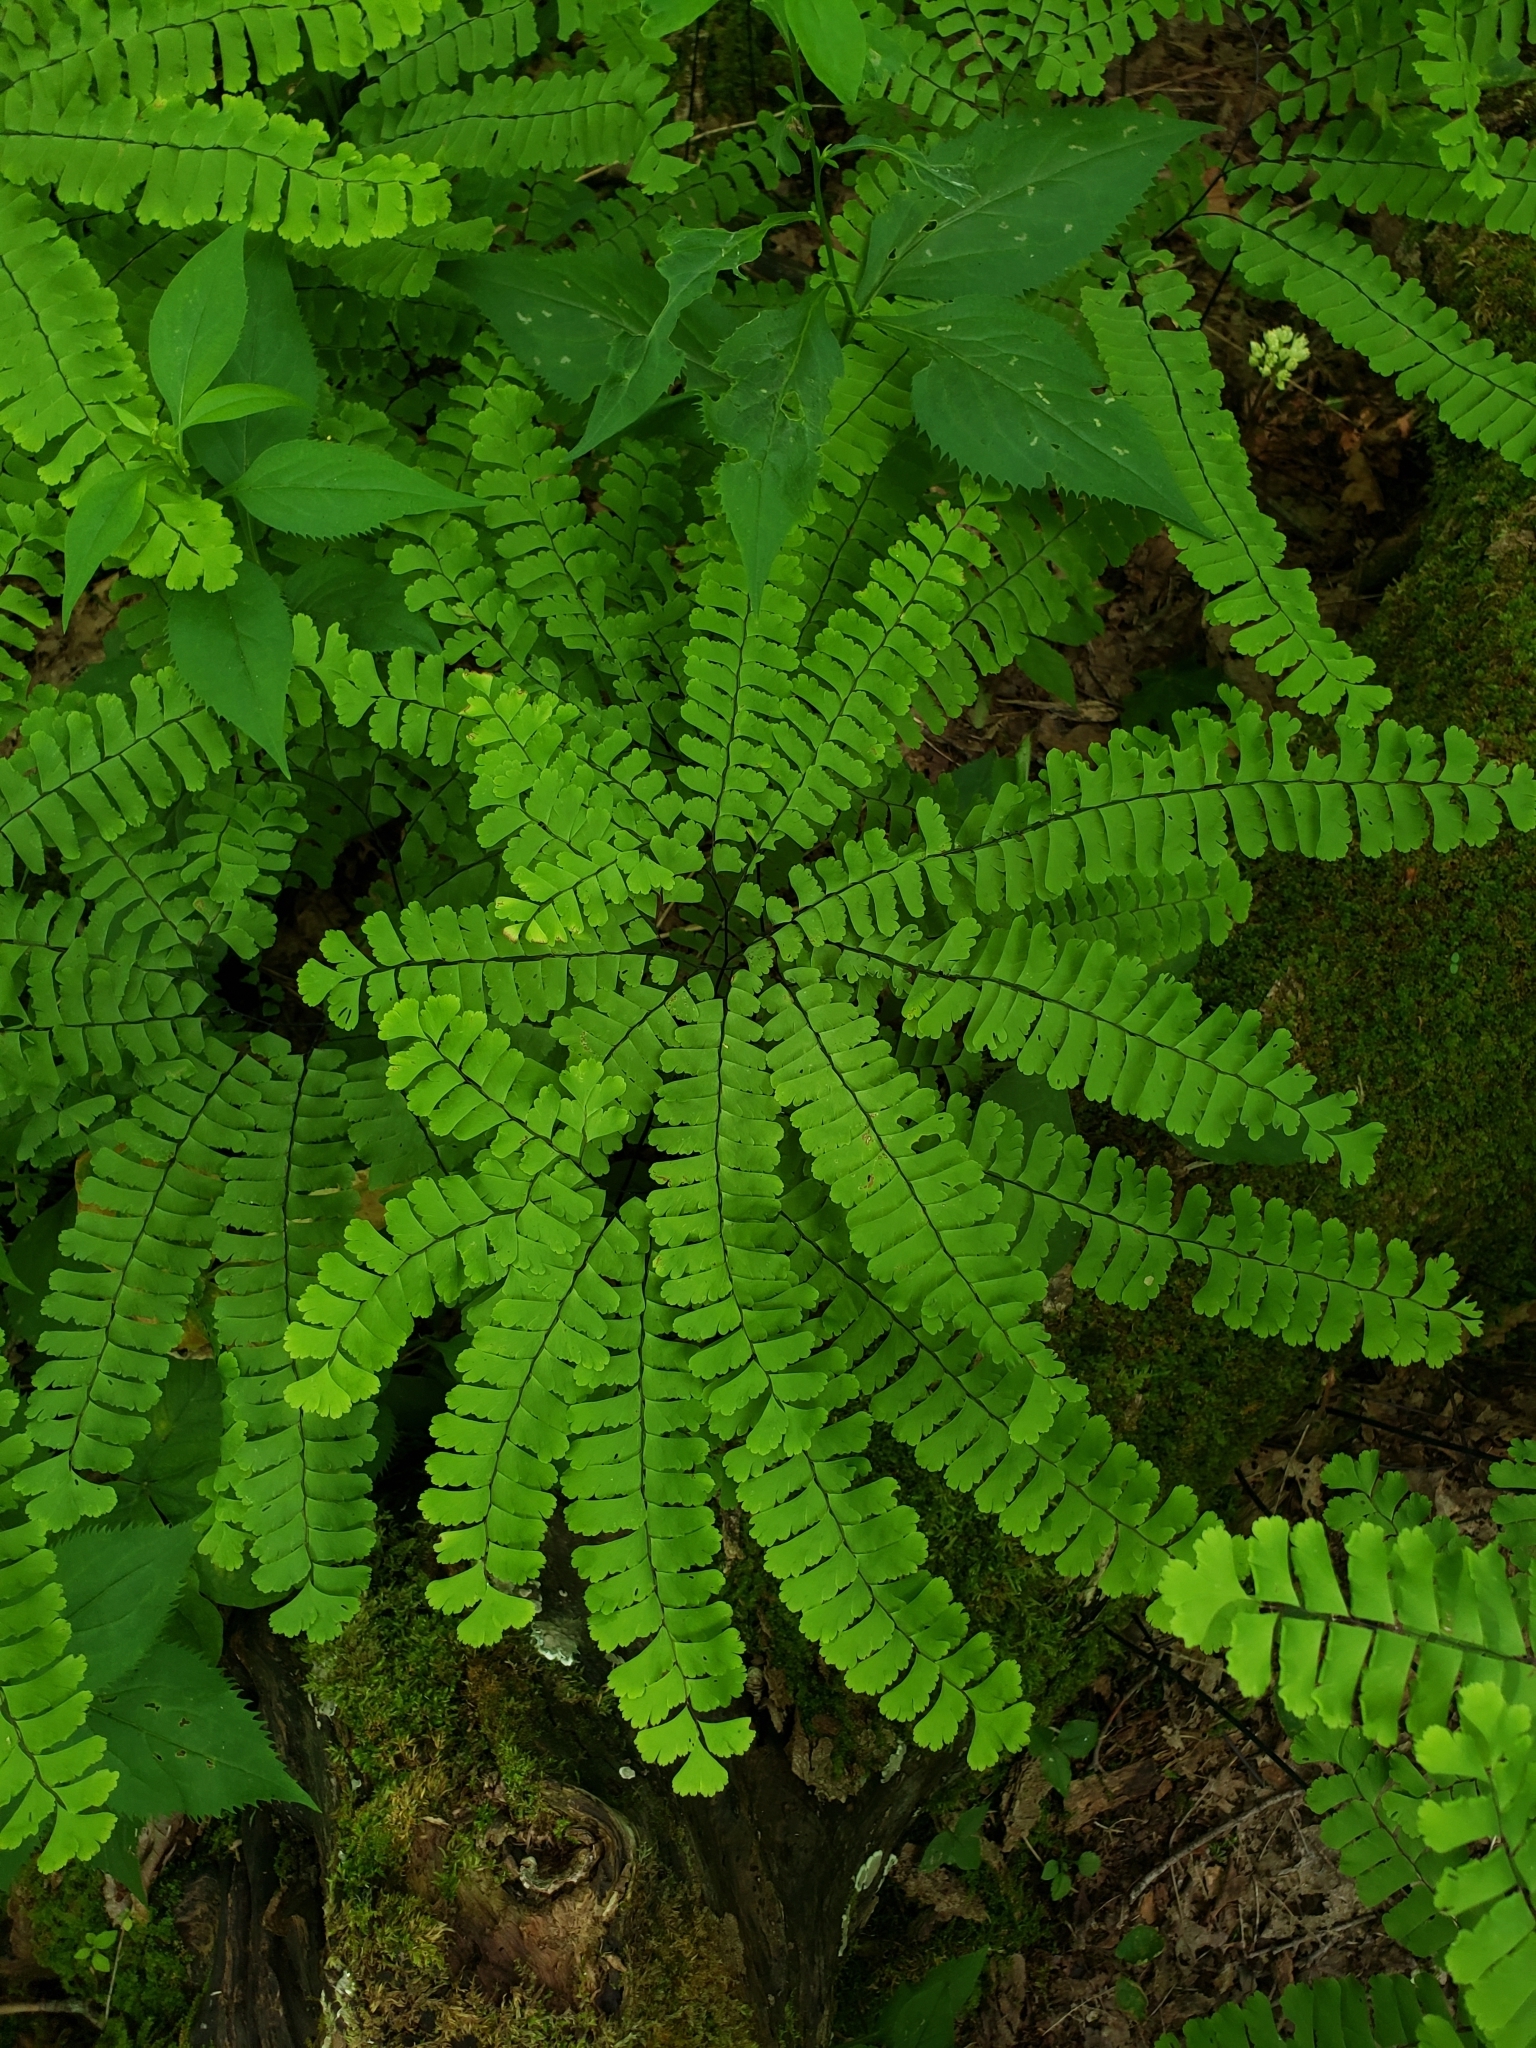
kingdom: Plantae
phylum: Tracheophyta
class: Polypodiopsida
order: Polypodiales
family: Pteridaceae
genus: Adiantum
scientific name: Adiantum pedatum
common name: Five-finger fern
